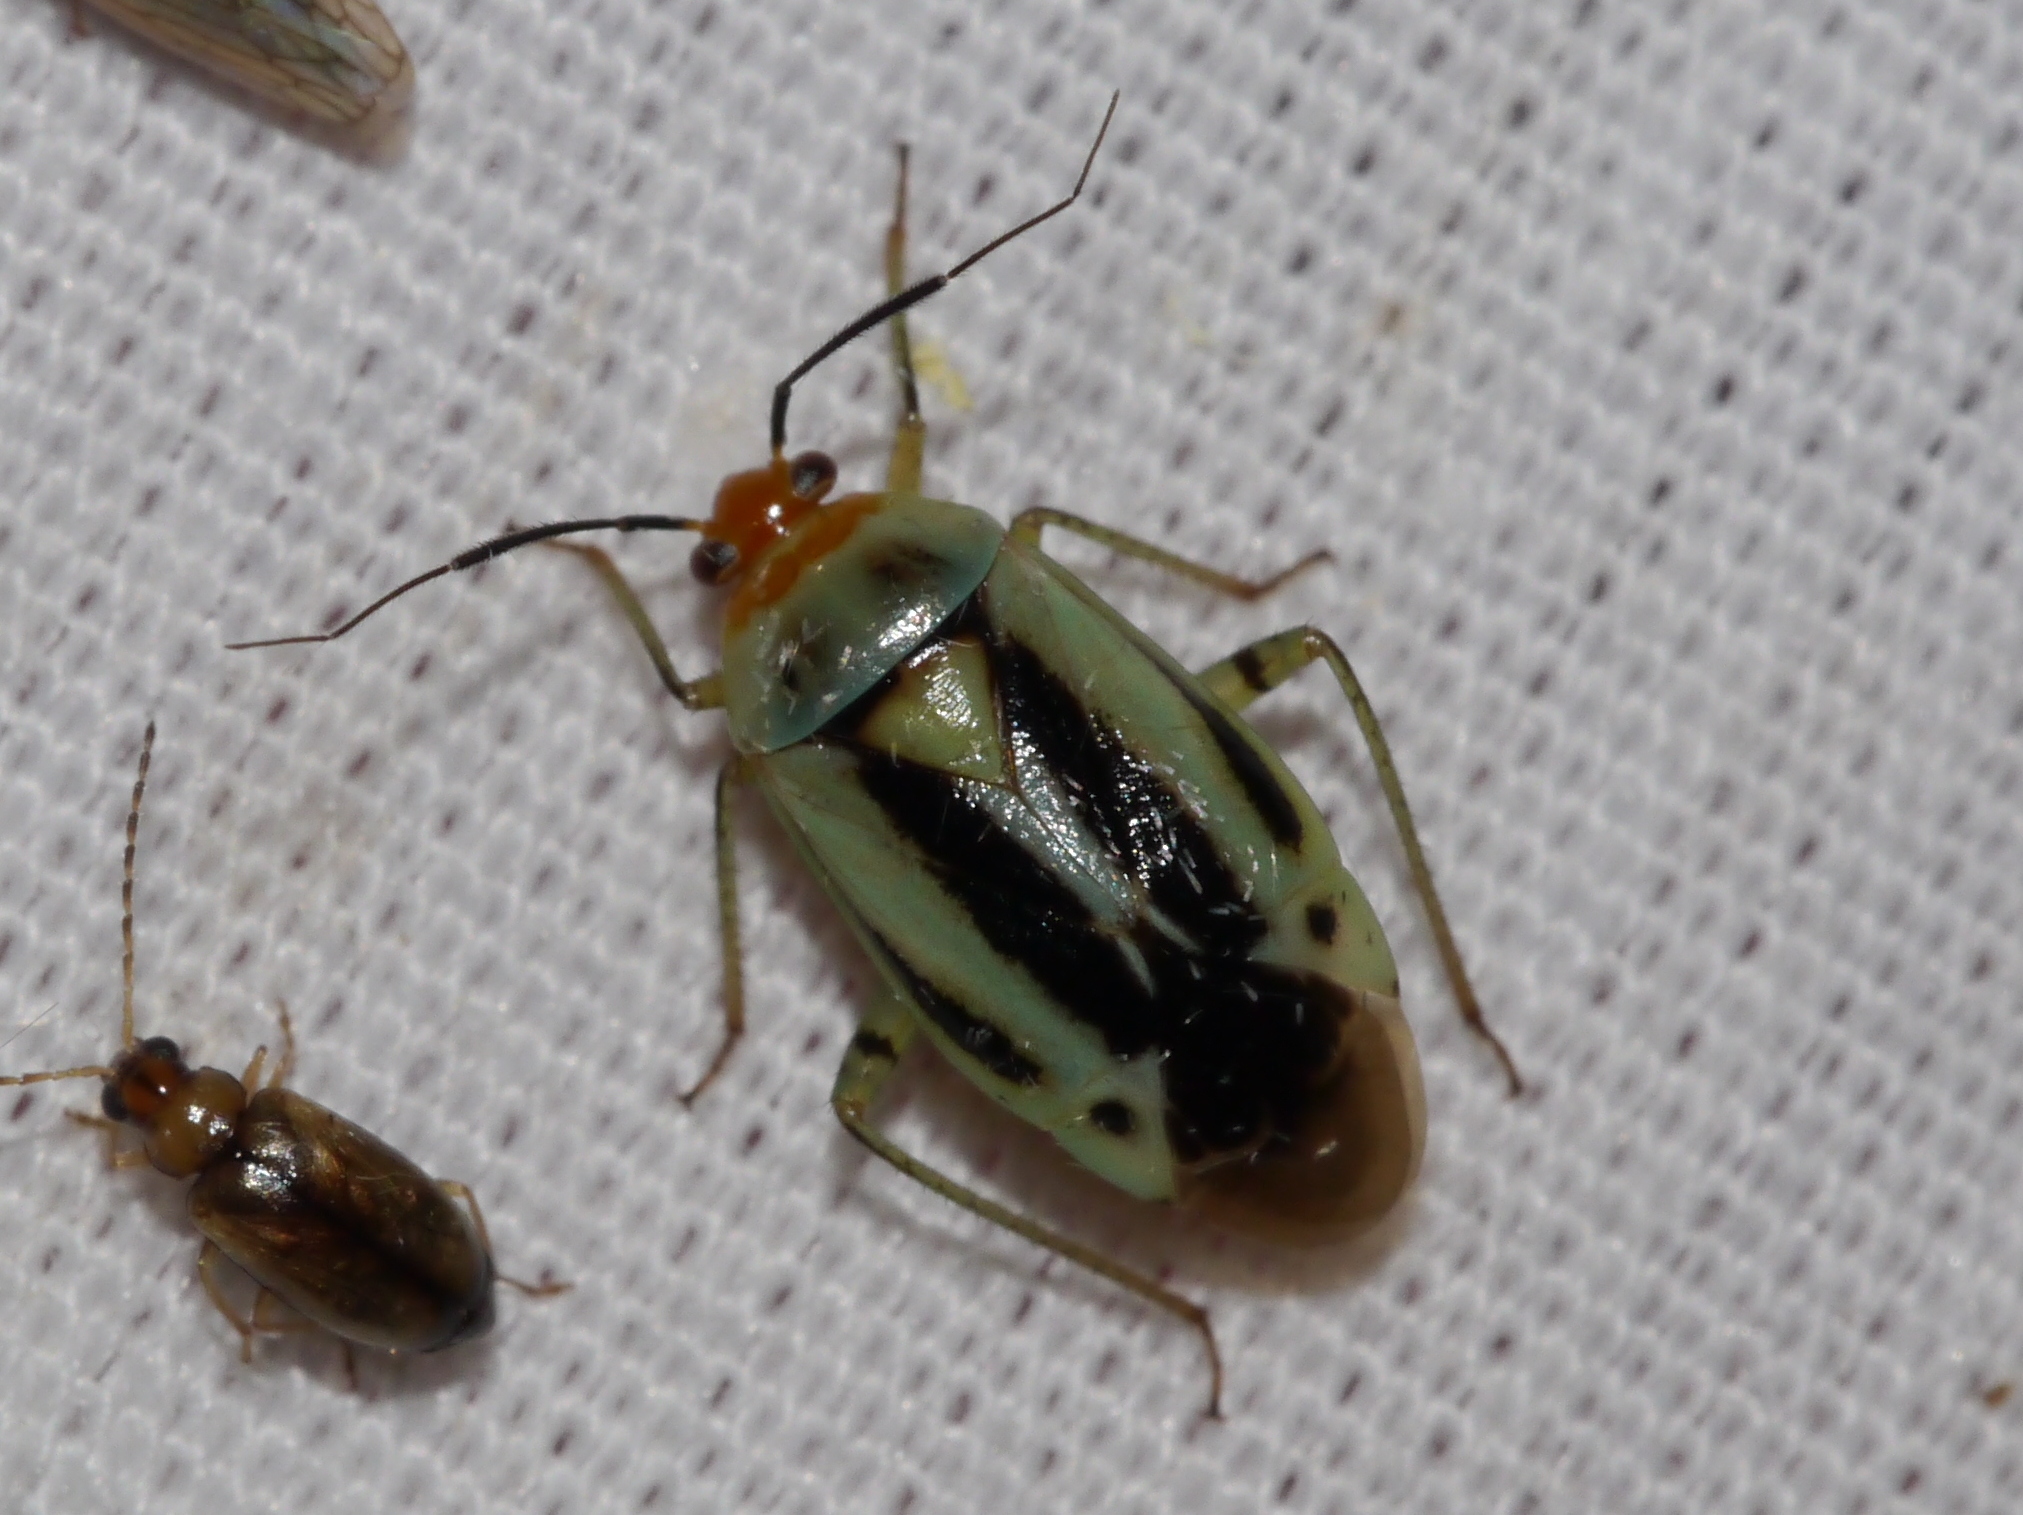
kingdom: Animalia
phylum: Arthropoda
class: Insecta
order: Hemiptera
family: Miridae
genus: Poecilocapsus
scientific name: Poecilocapsus nigriger
